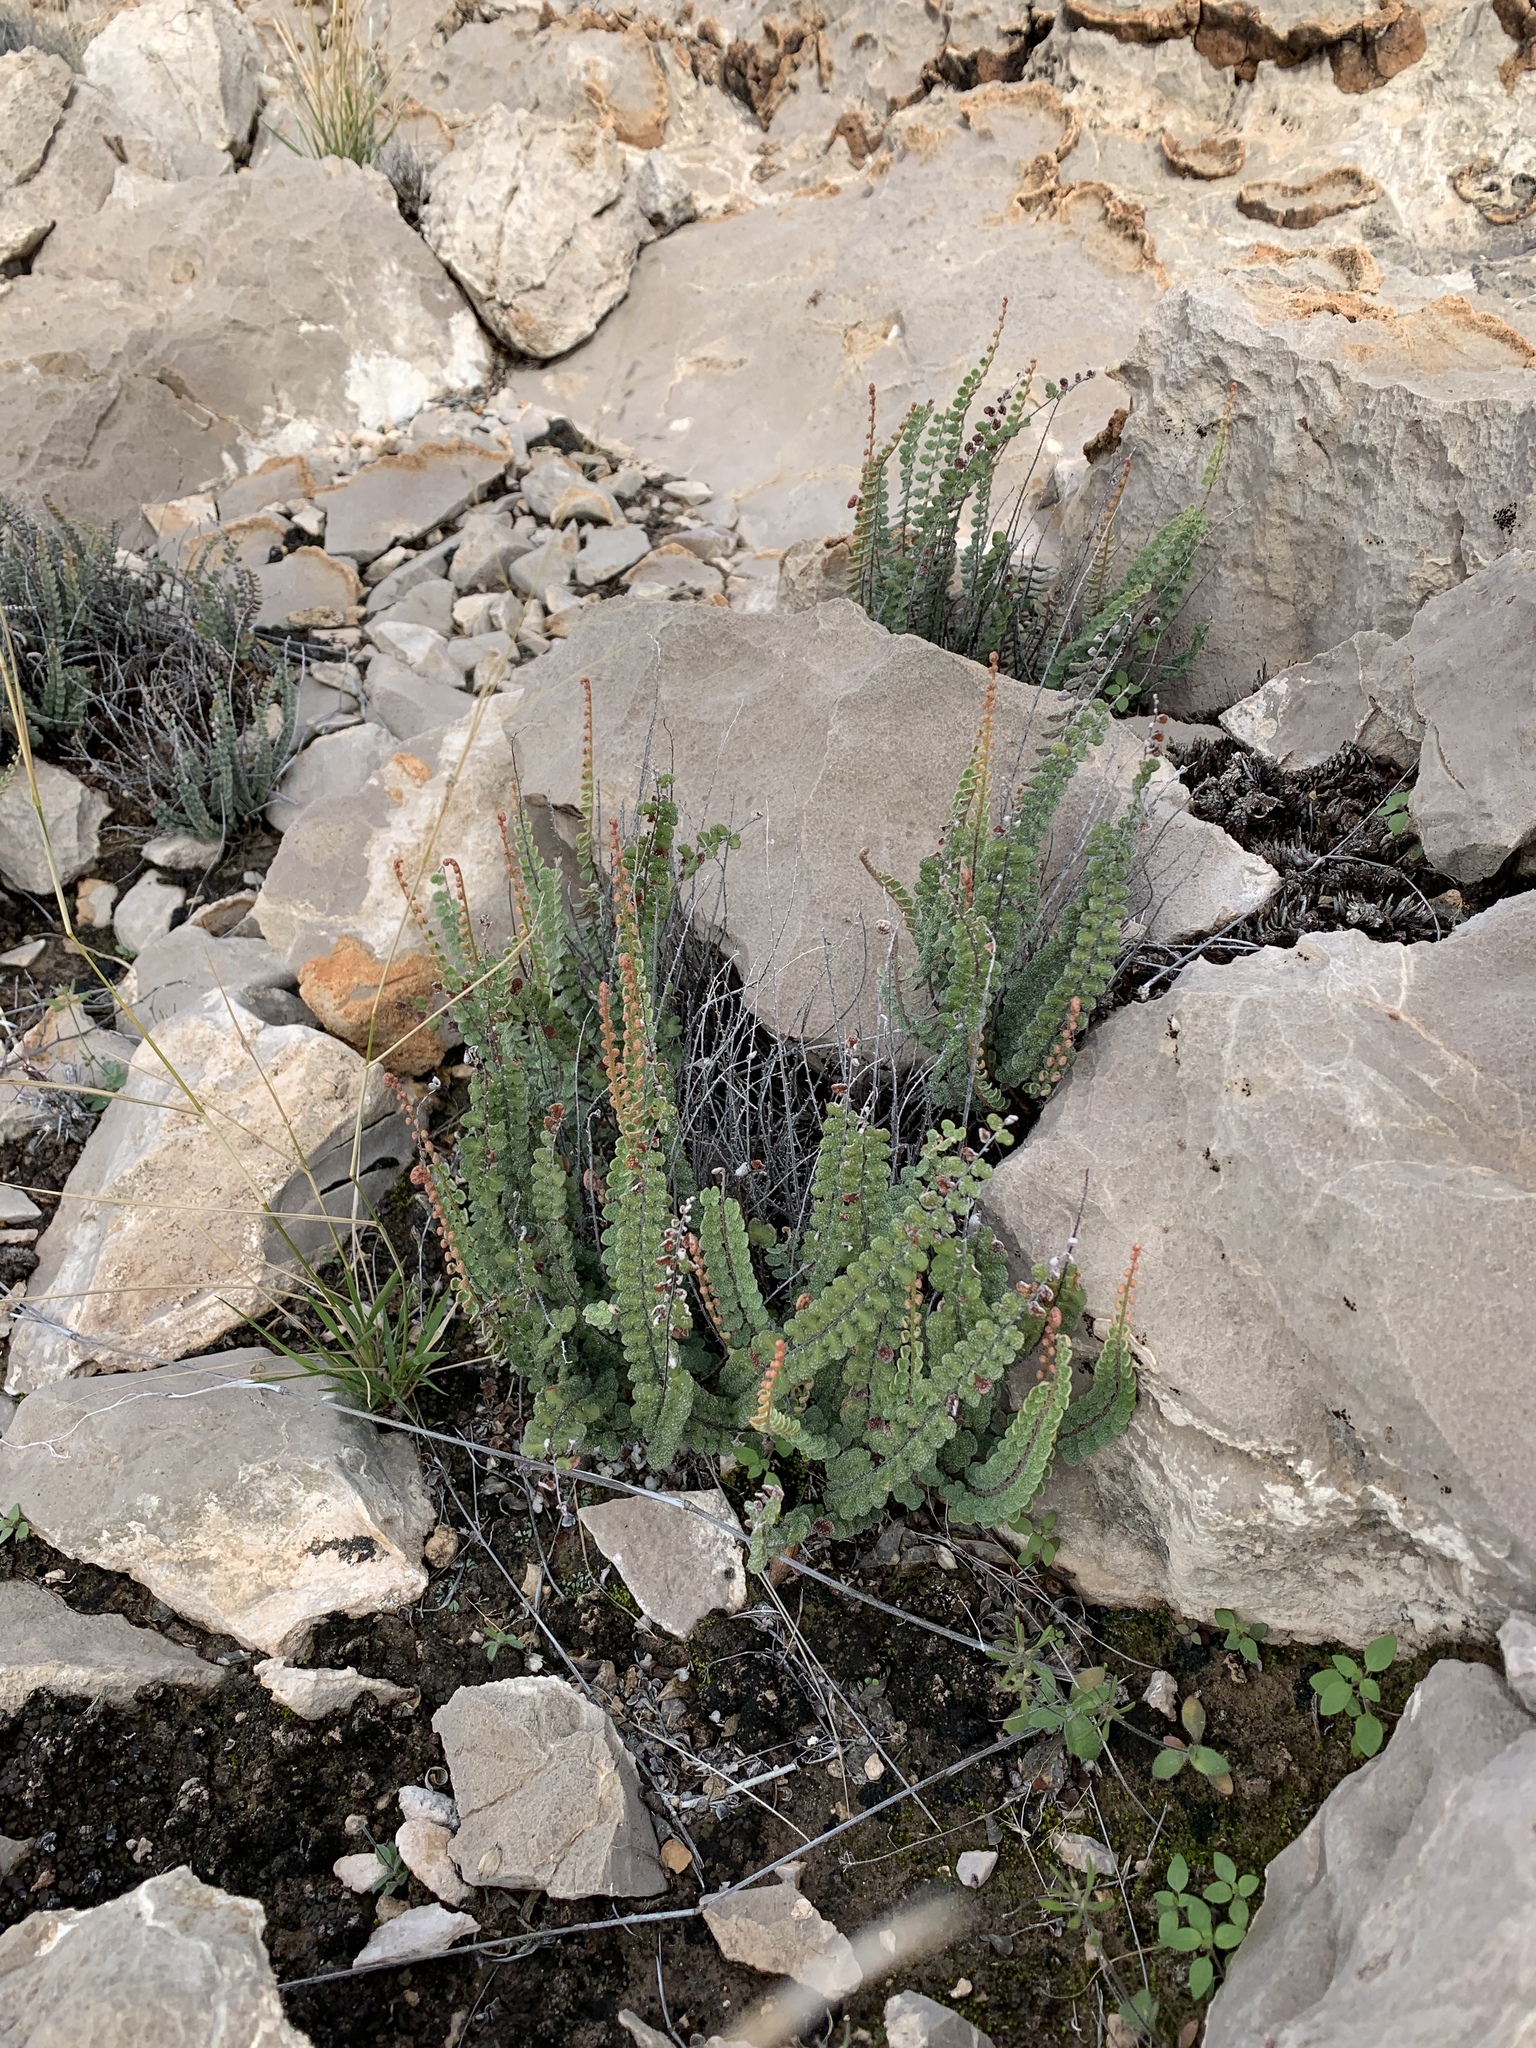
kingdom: Plantae
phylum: Tracheophyta
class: Polypodiopsida
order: Polypodiales
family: Pteridaceae
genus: Astrolepis
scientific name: Astrolepis cochisensis
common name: Scaly cloak fern
